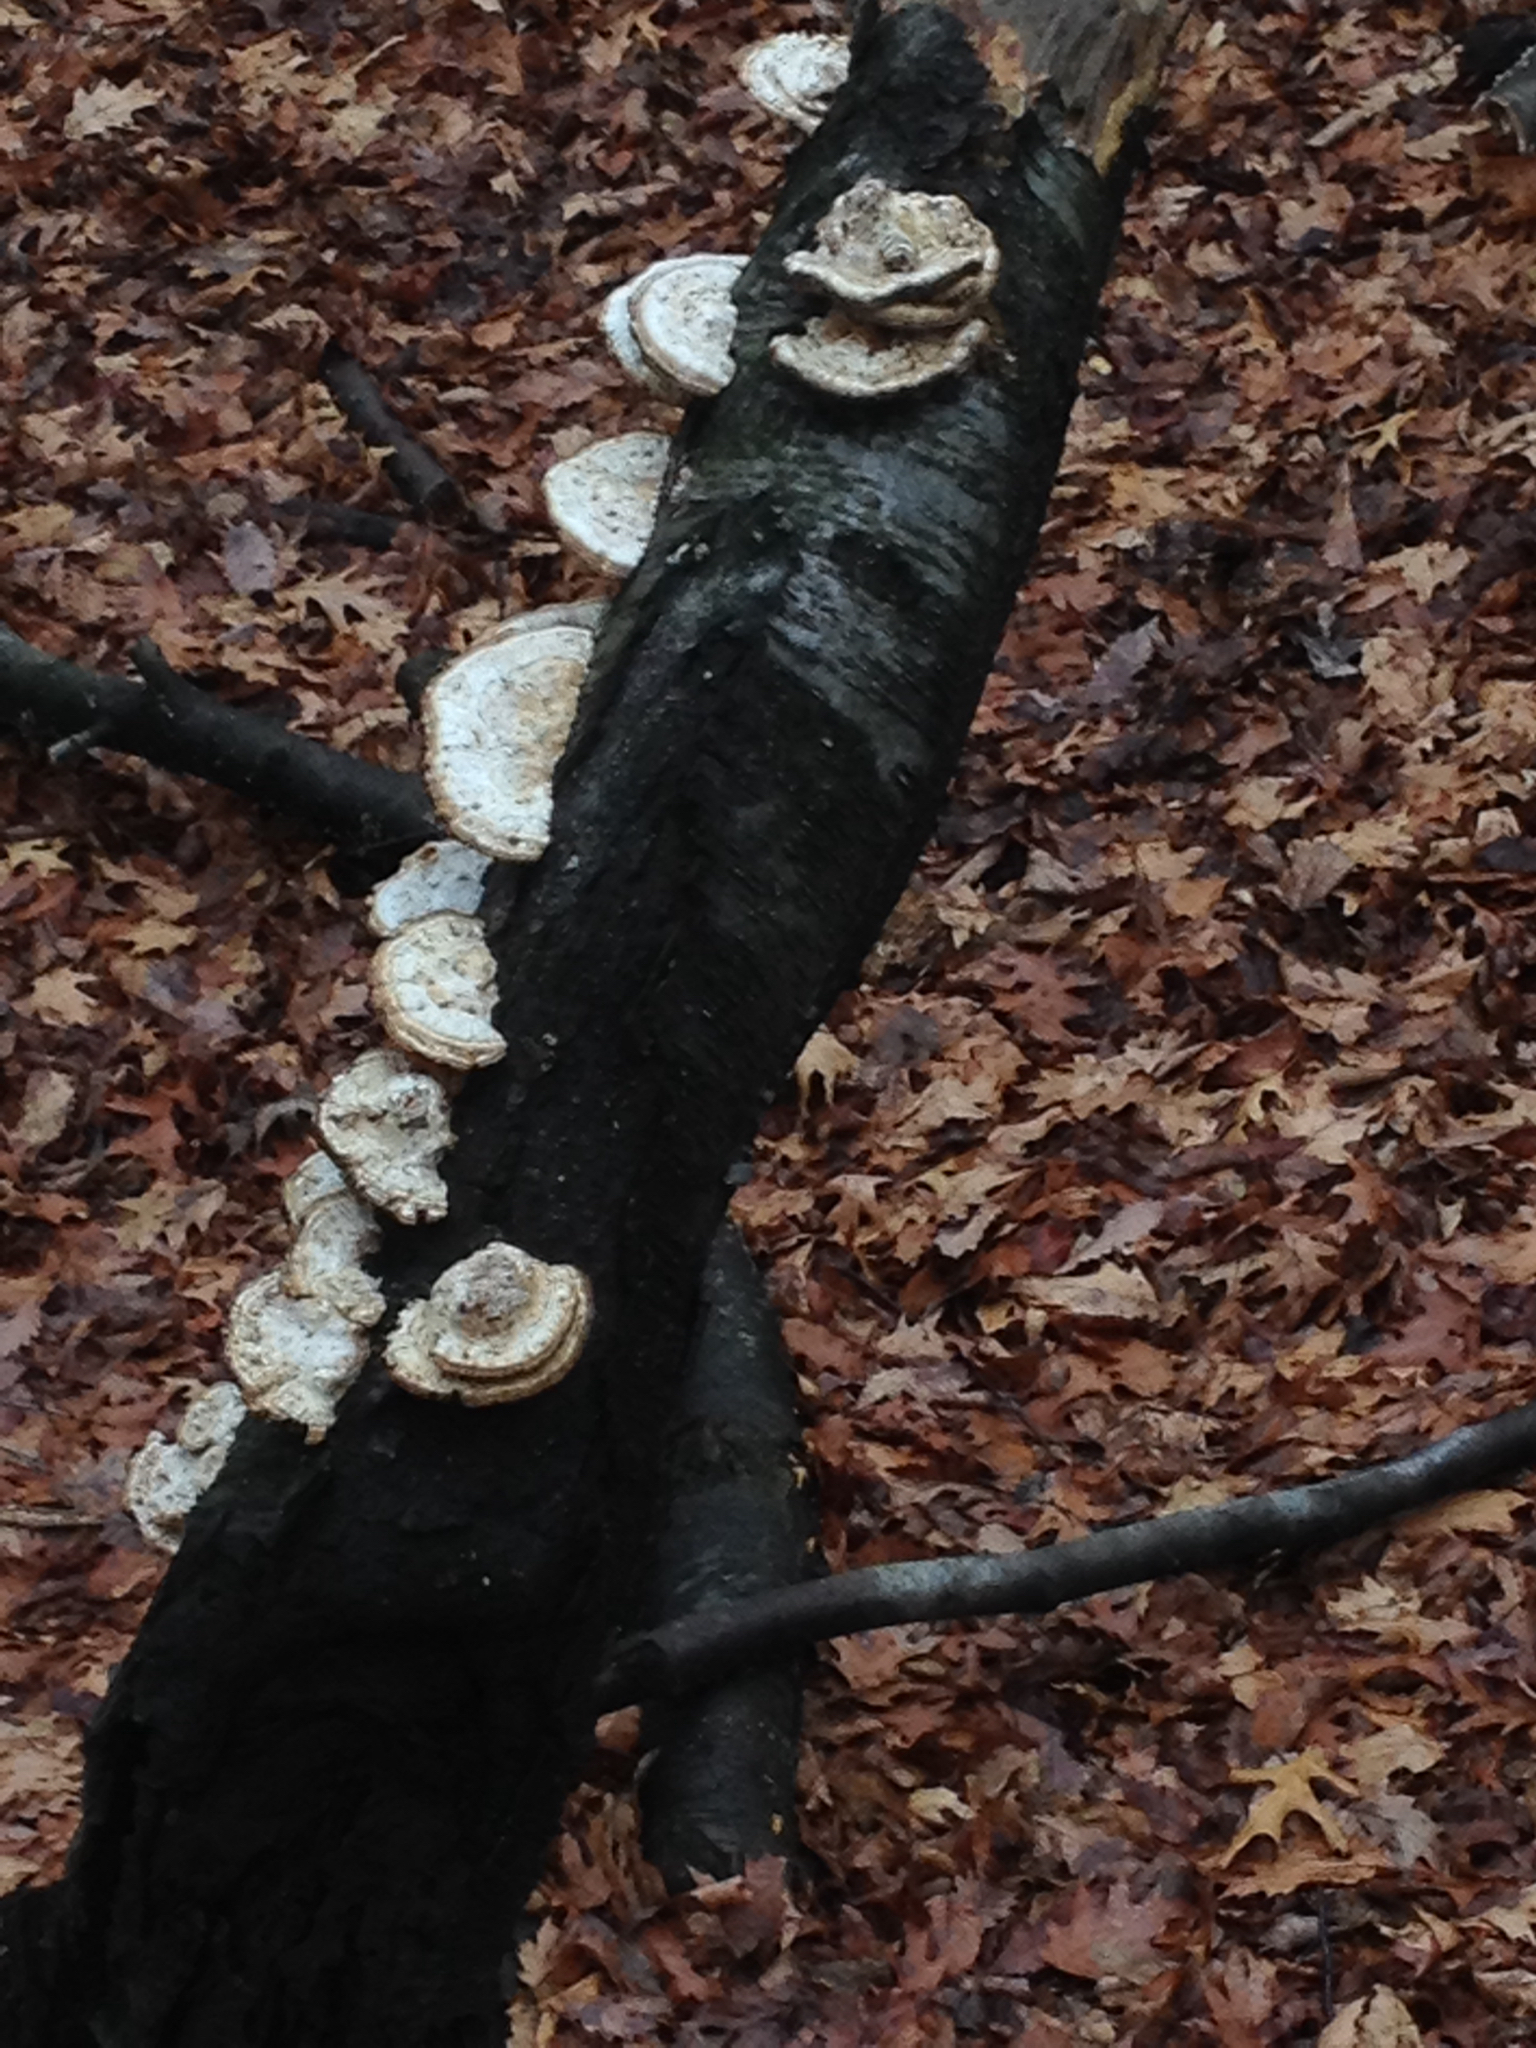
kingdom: Fungi
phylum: Basidiomycota
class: Agaricomycetes
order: Polyporales
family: Polyporaceae
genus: Trametes
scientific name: Trametes cubensis
